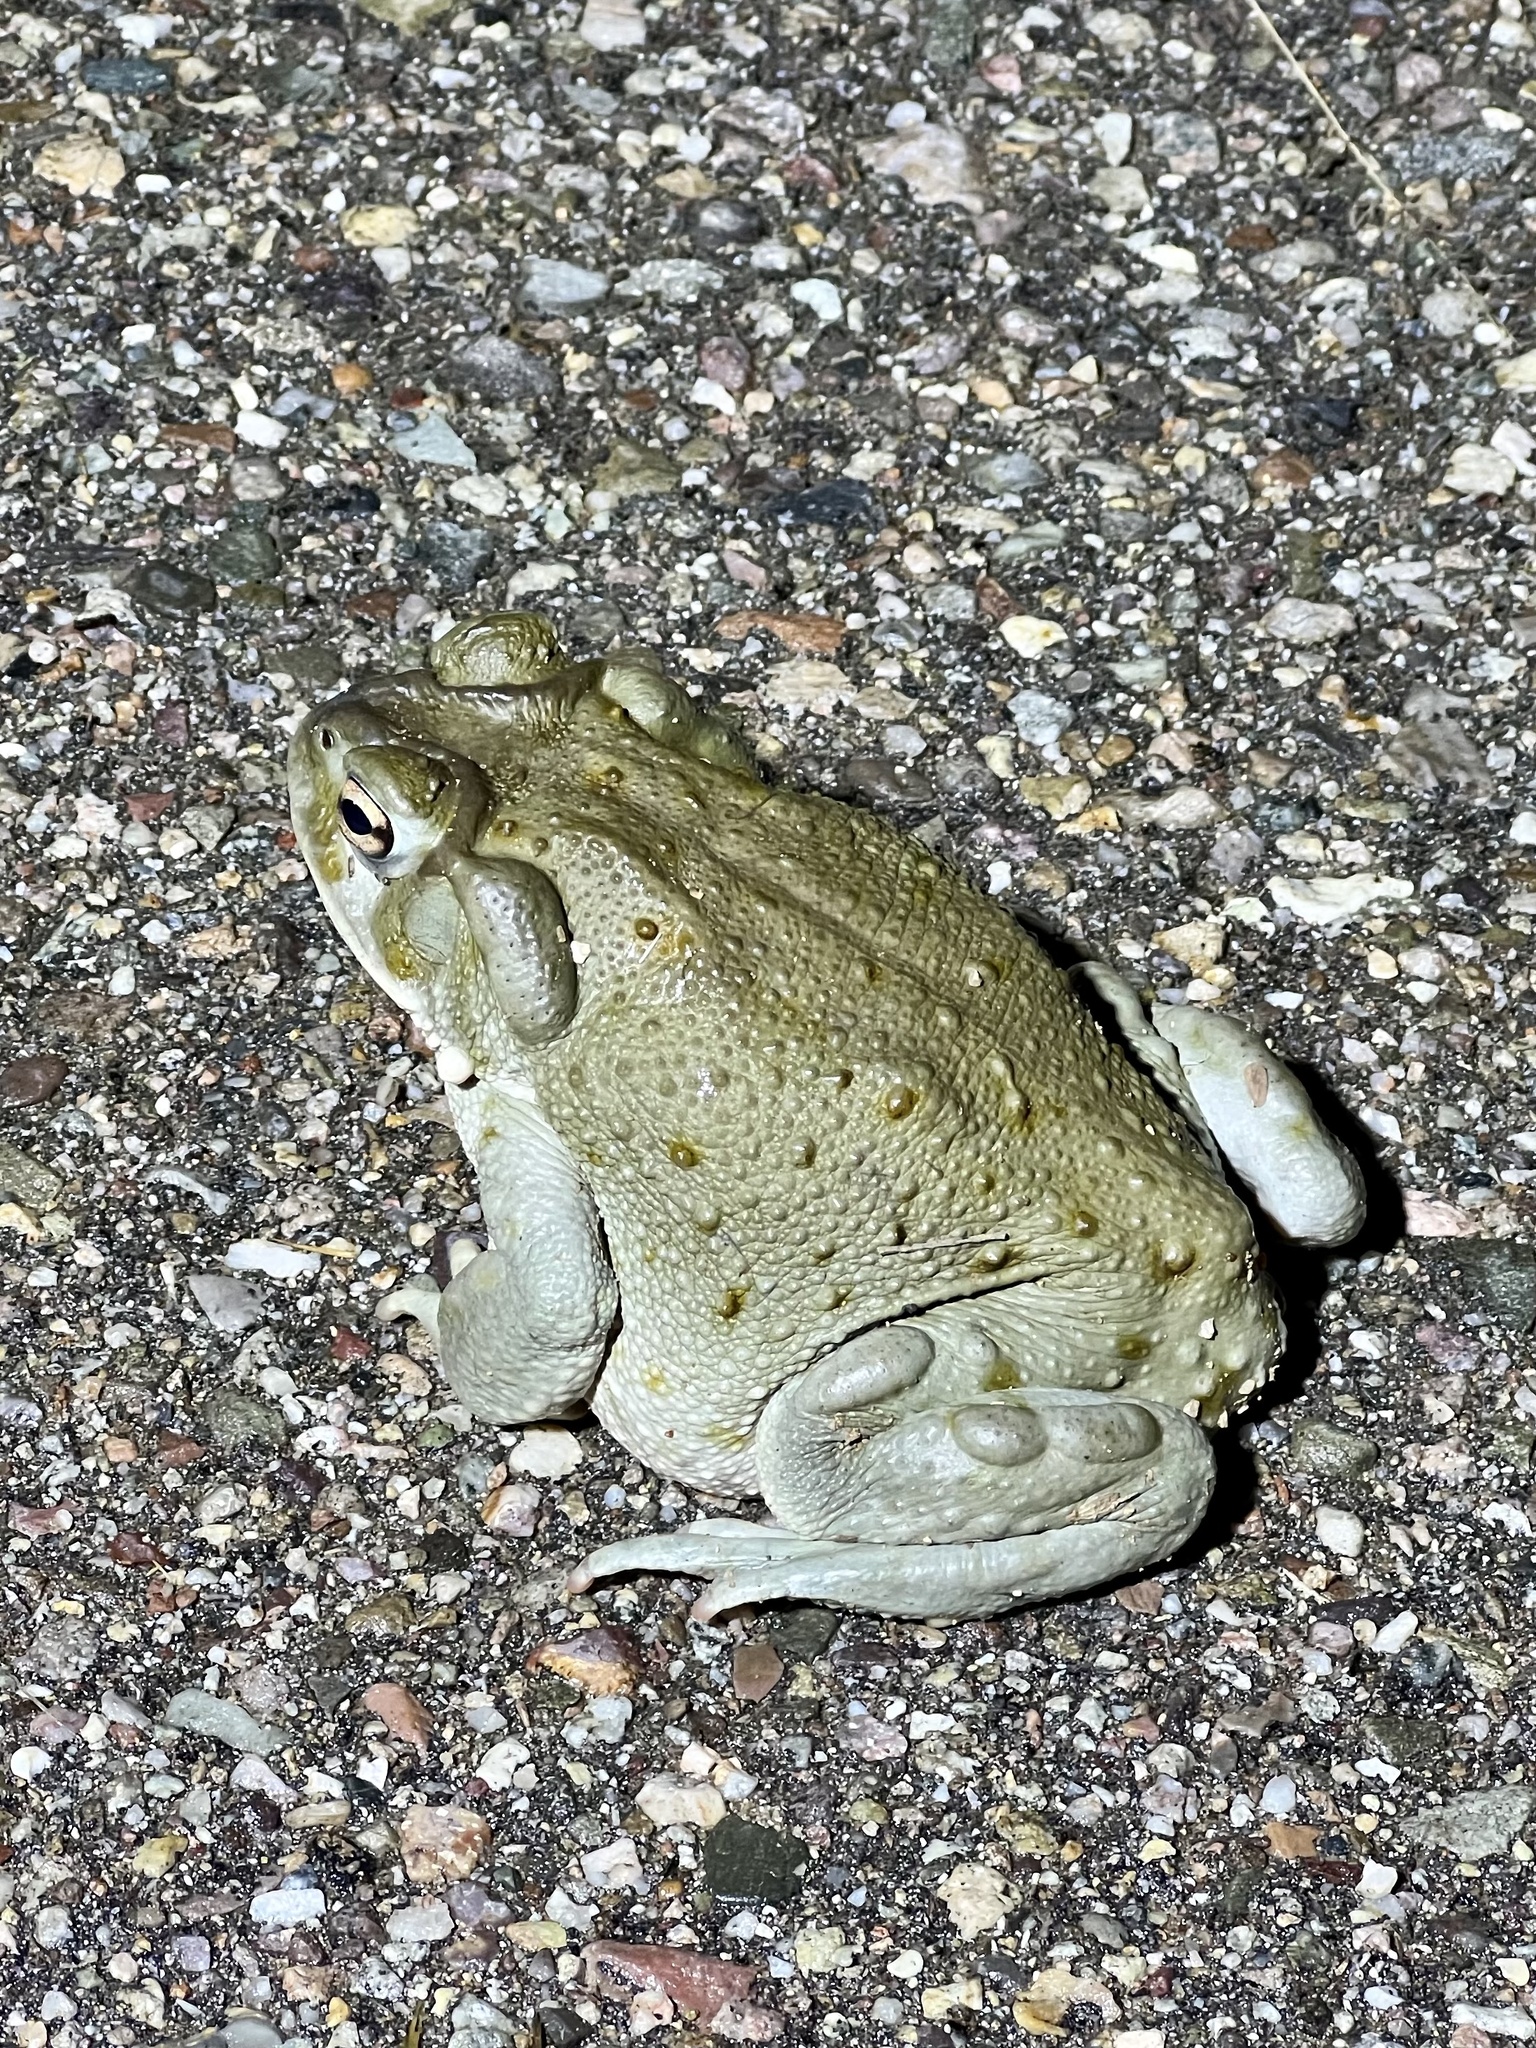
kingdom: Animalia
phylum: Chordata
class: Amphibia
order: Anura
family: Bufonidae
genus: Incilius
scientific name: Incilius alvarius
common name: Sonoran desert toad
